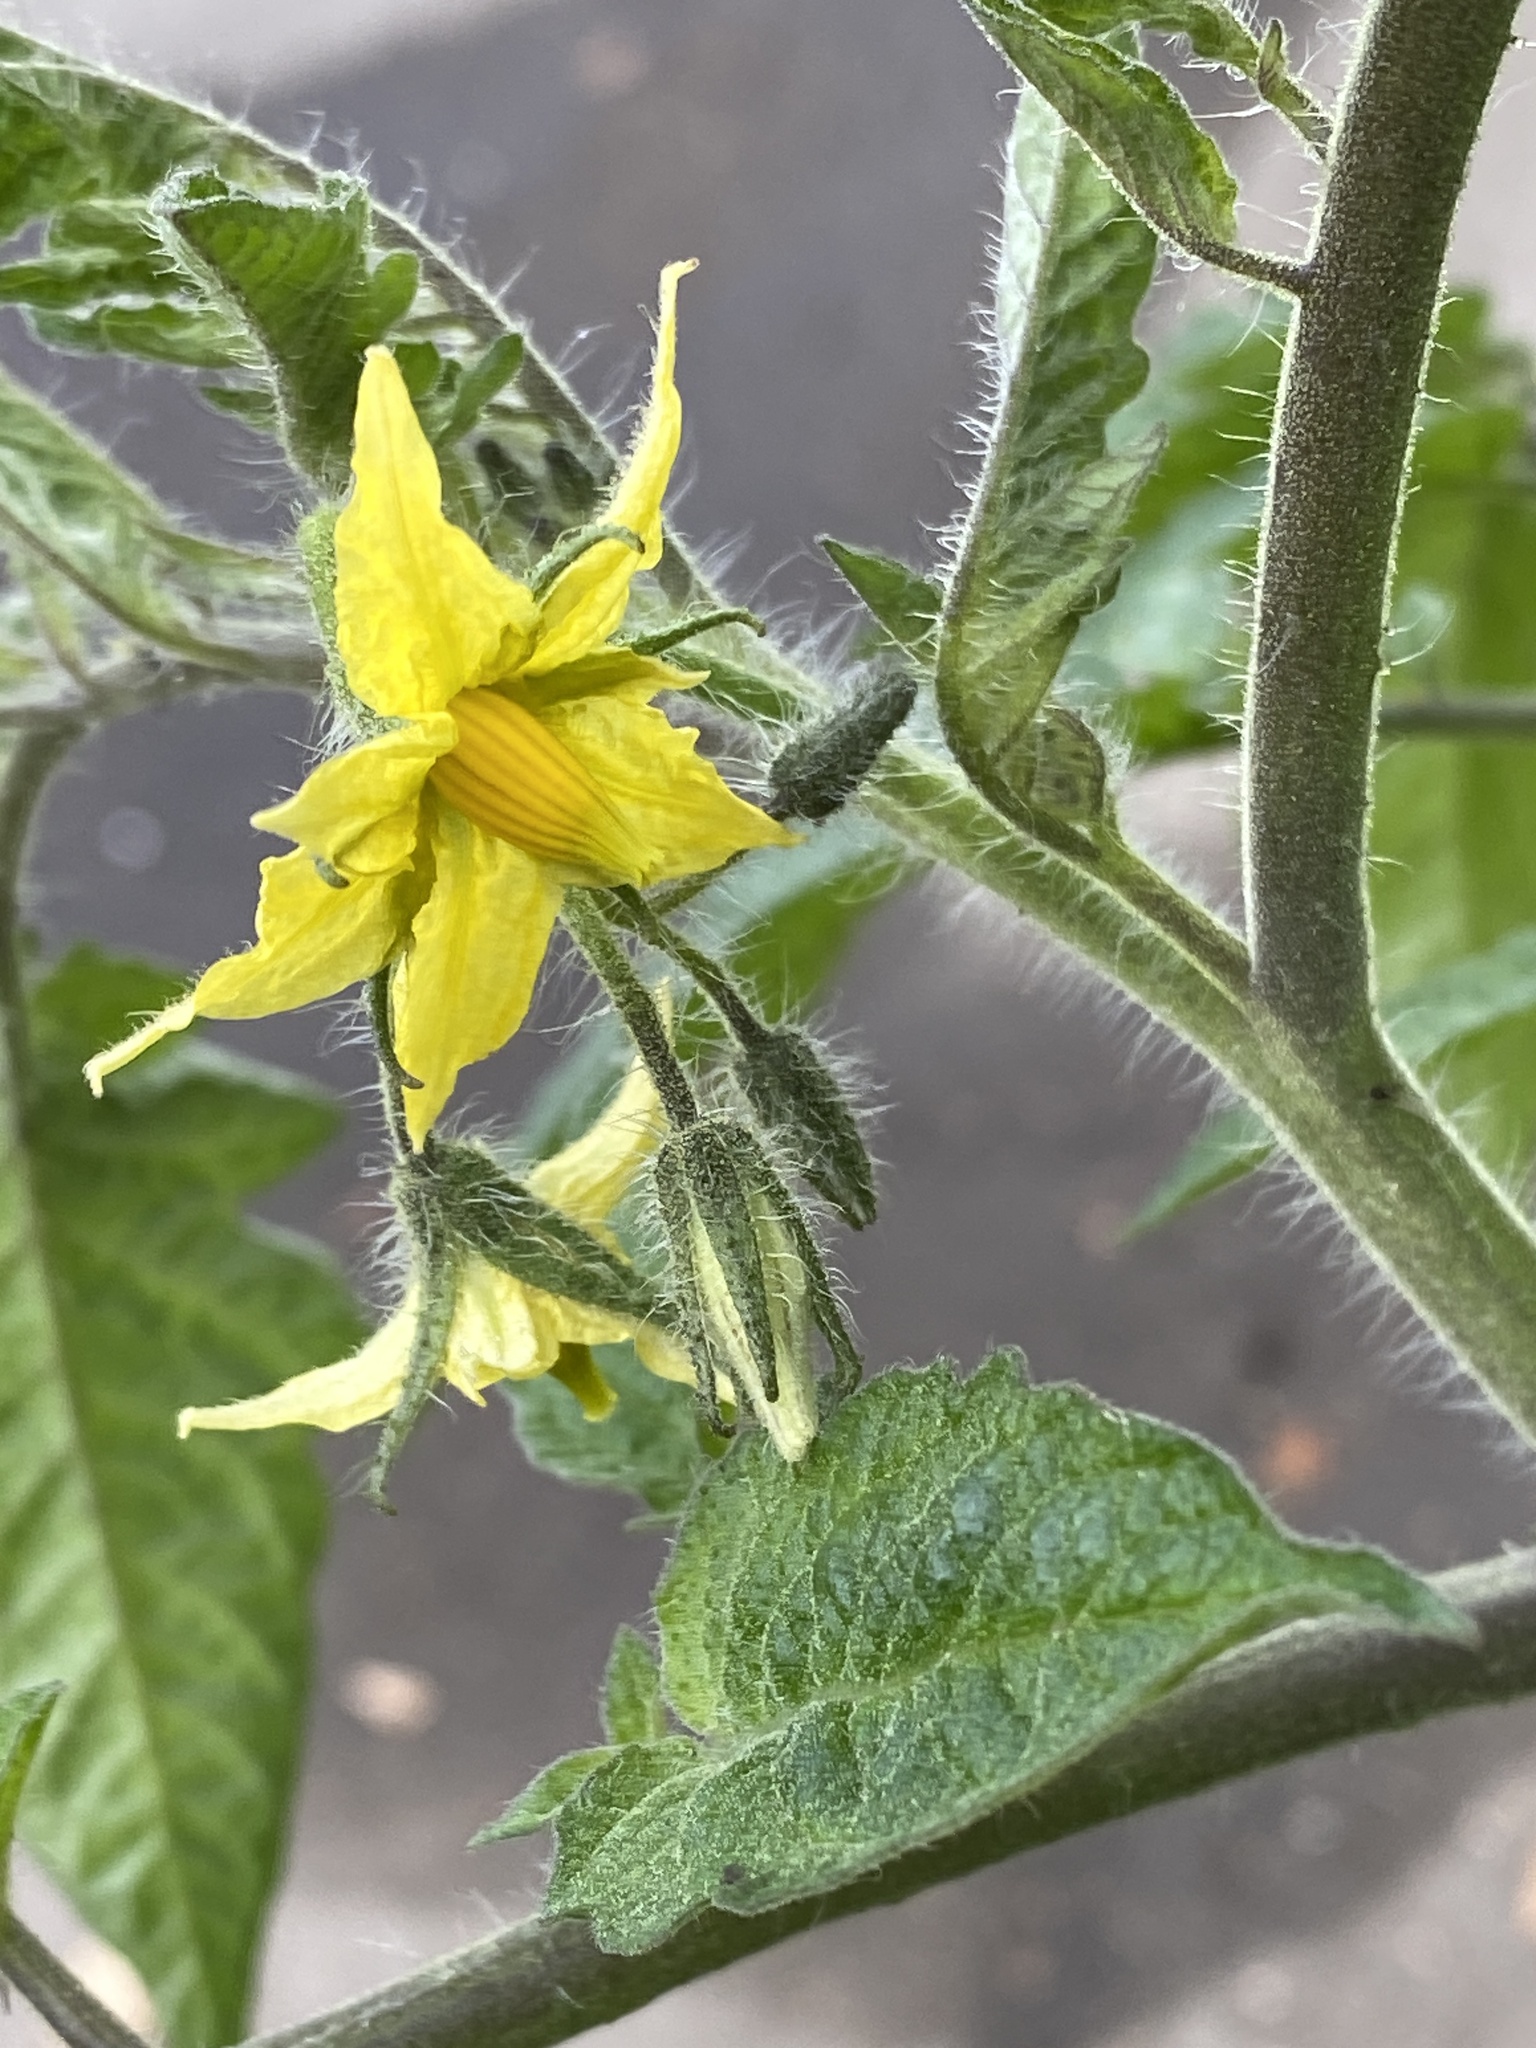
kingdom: Plantae
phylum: Tracheophyta
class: Magnoliopsida
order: Solanales
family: Solanaceae
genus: Solanum
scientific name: Solanum lycopersicum
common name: Garden tomato
